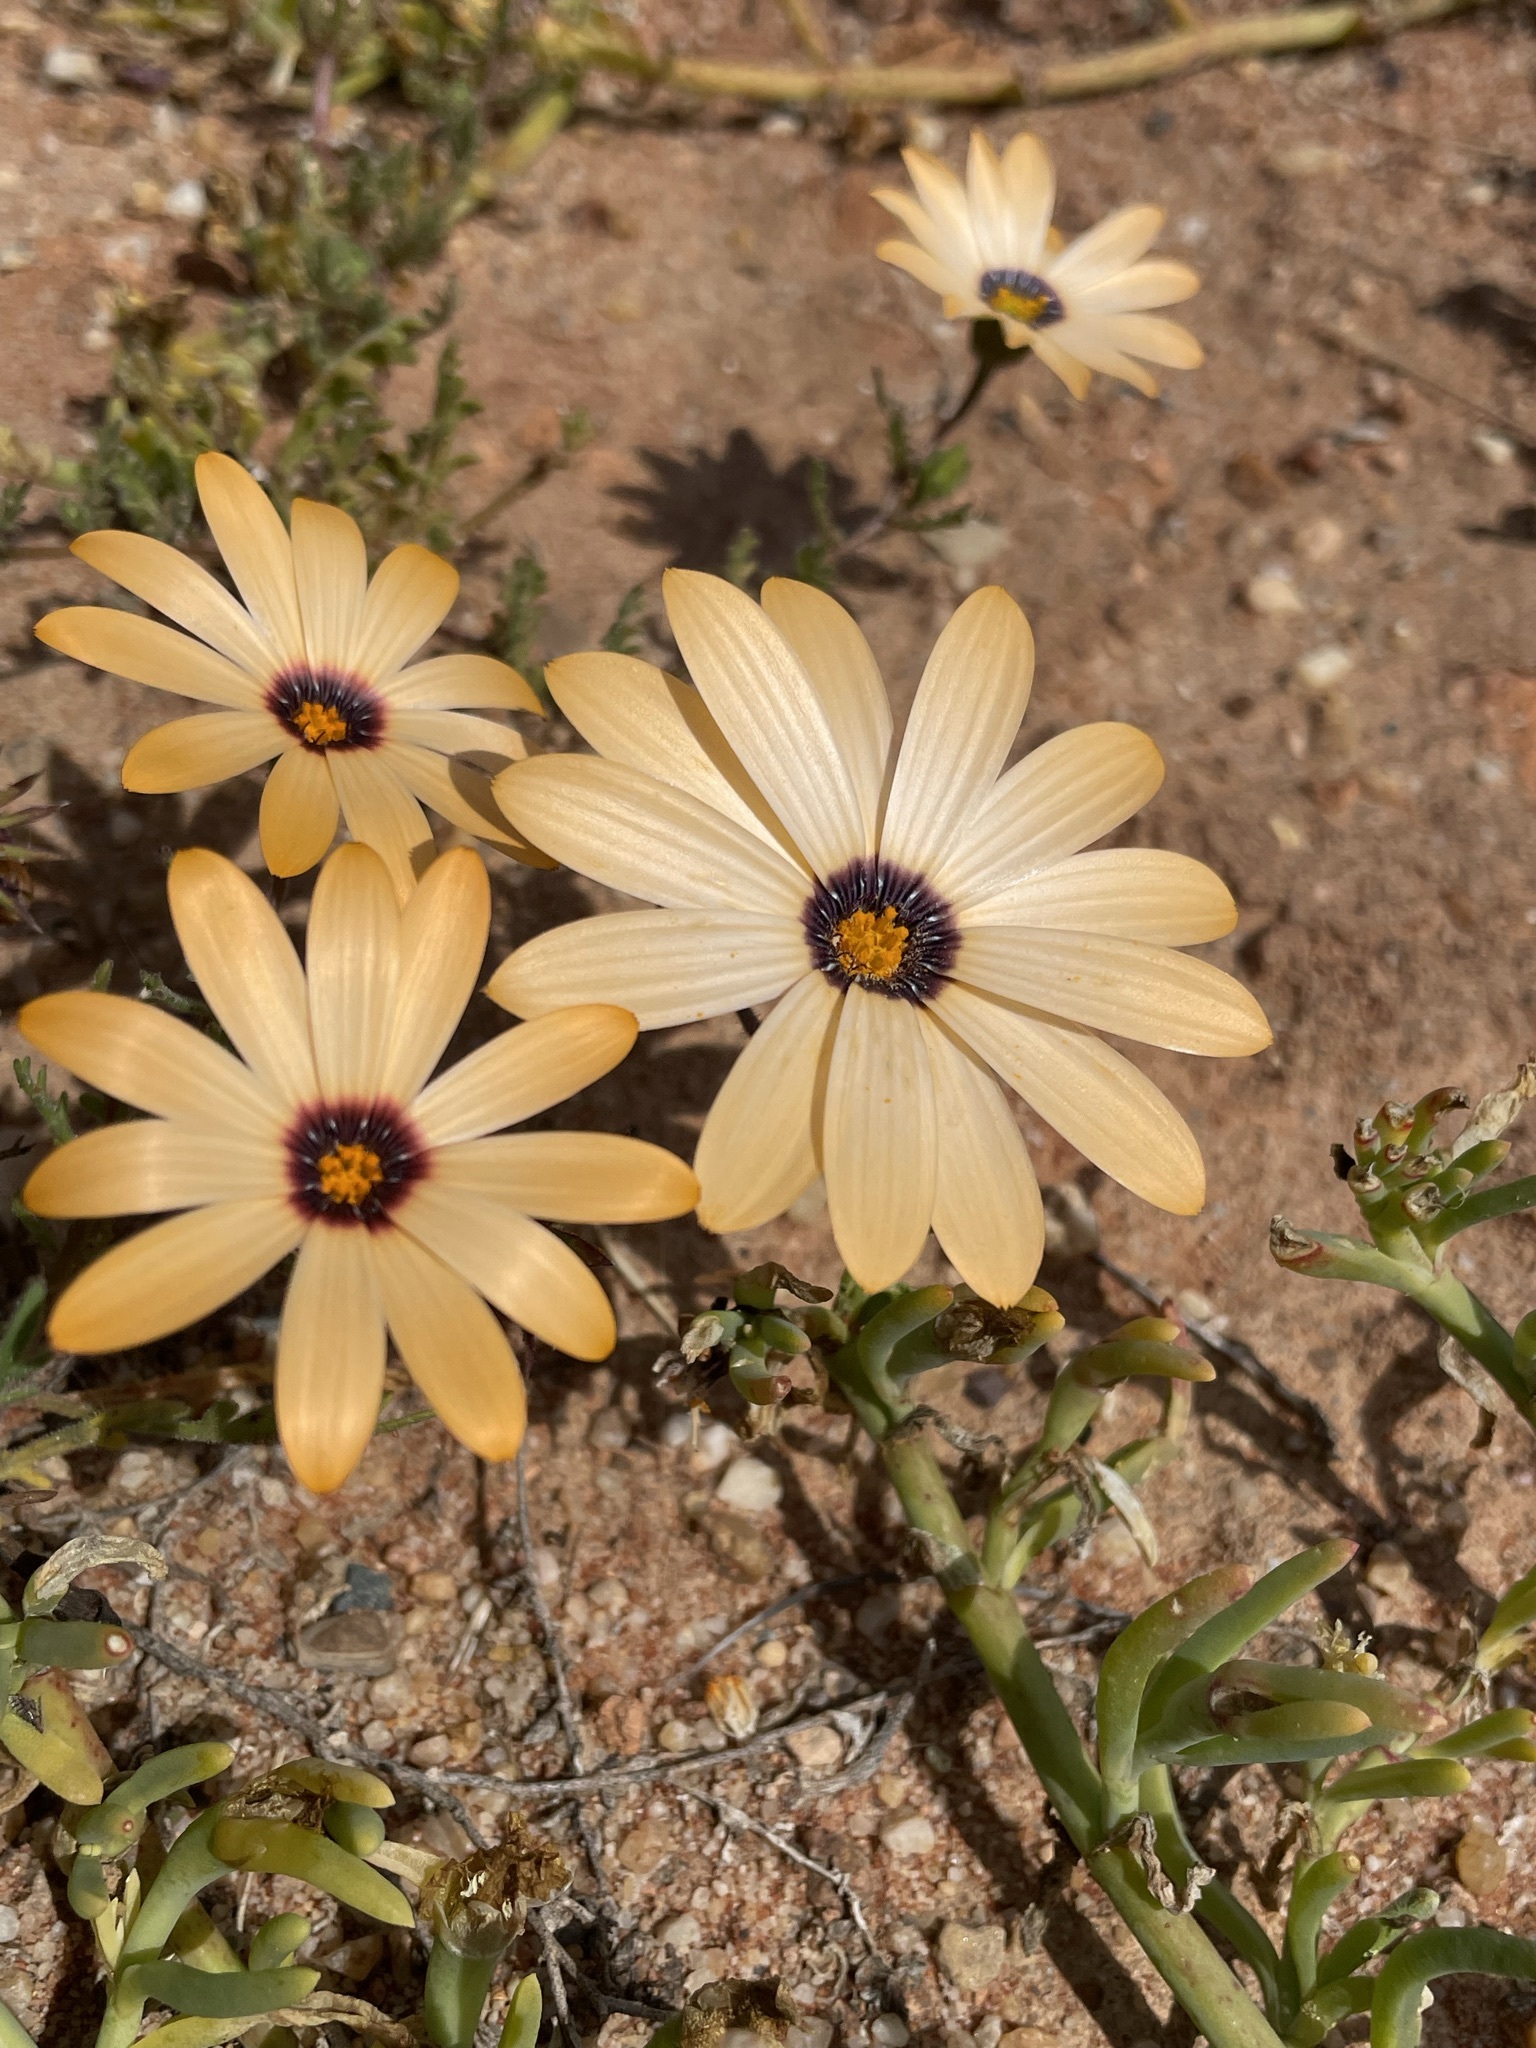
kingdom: Plantae
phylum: Tracheophyta
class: Magnoliopsida
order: Asterales
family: Asteraceae
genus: Dimorphotheca
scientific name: Dimorphotheca pinnata
